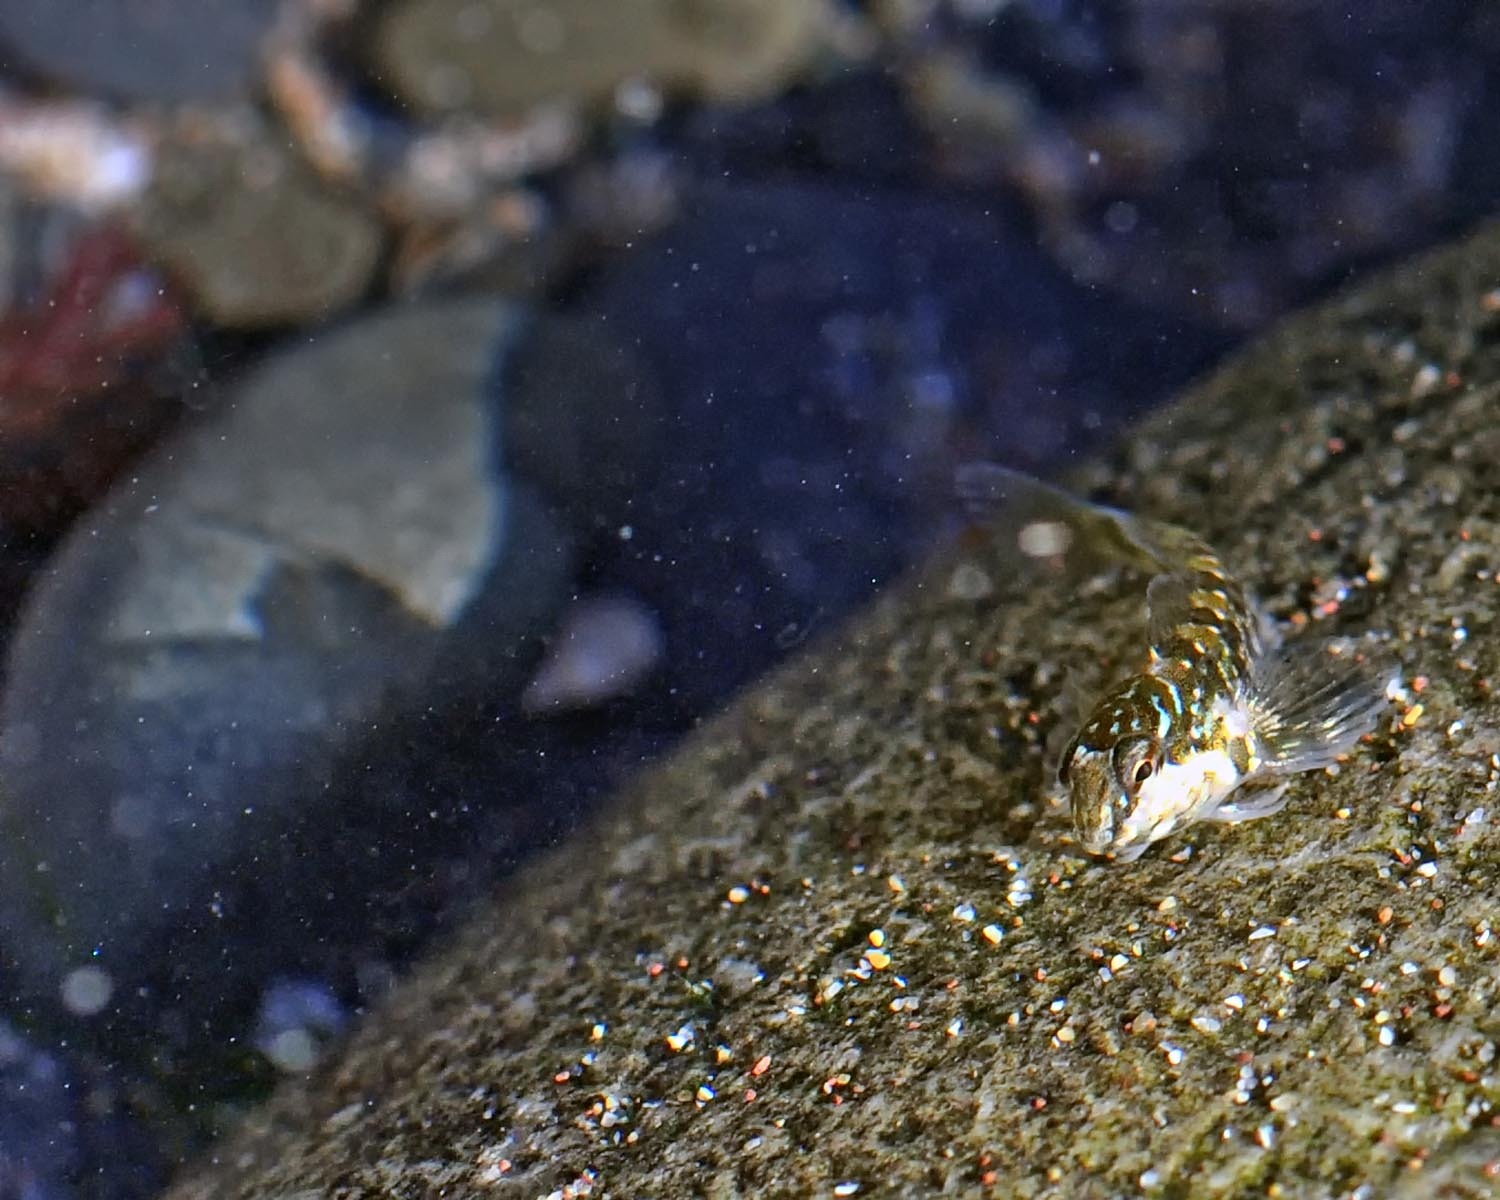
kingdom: Animalia
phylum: Chordata
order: Perciformes
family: Blenniidae
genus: Lipophrys
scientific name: Lipophrys pholis
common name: Shanny
